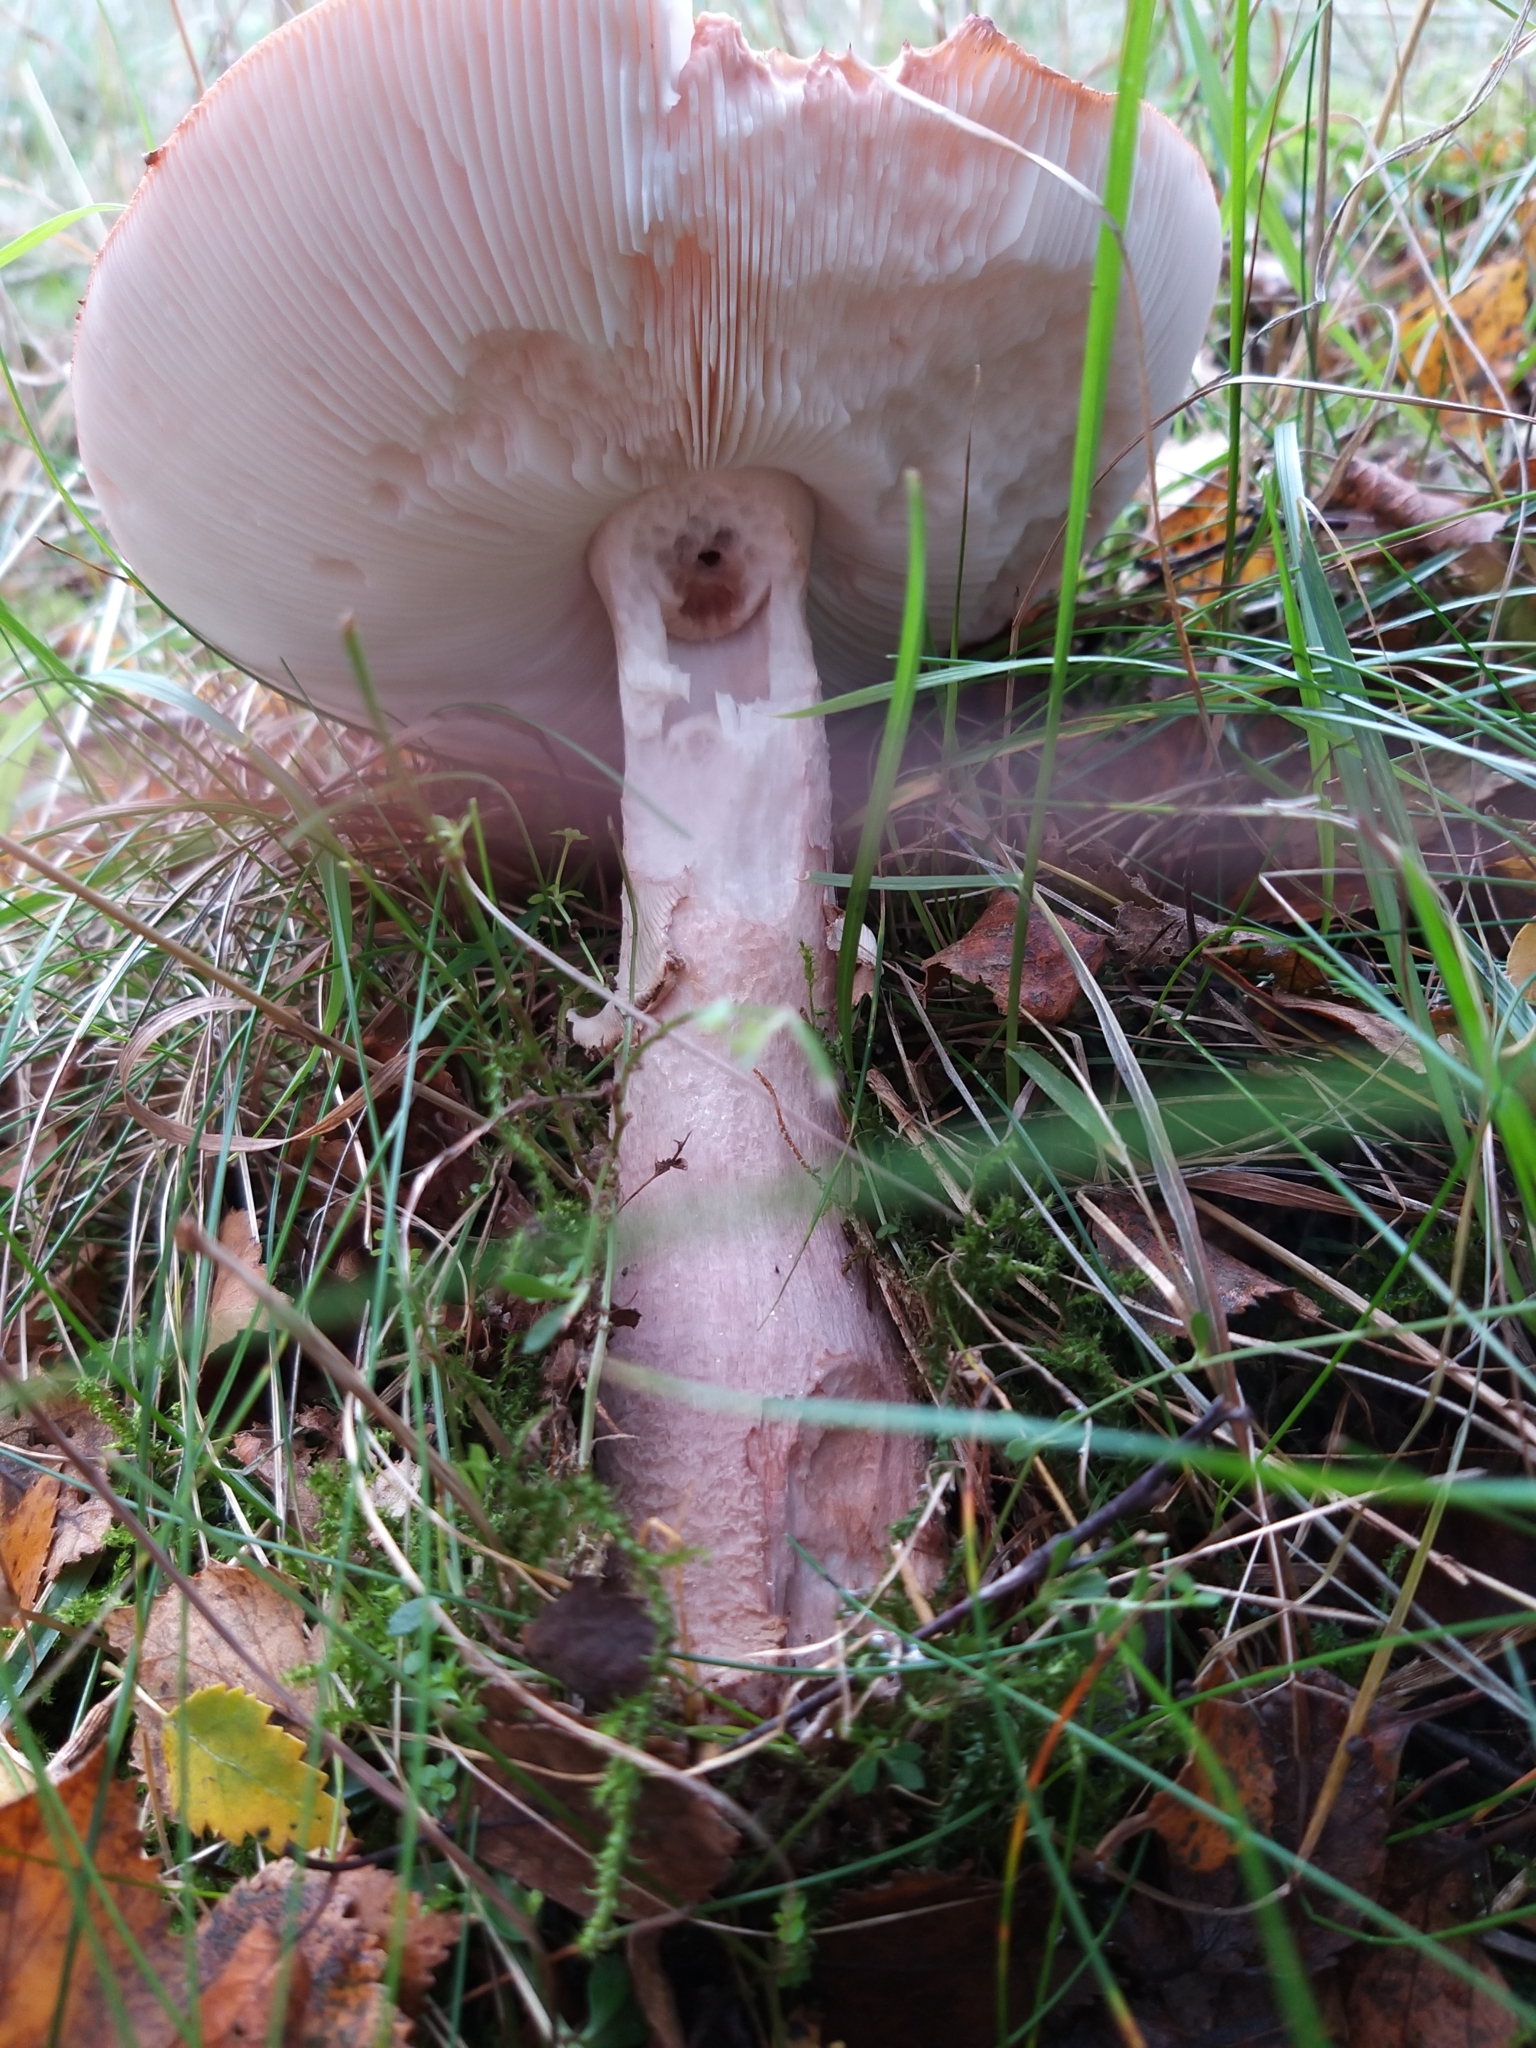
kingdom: Fungi
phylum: Basidiomycota
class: Agaricomycetes
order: Agaricales
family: Amanitaceae
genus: Amanita
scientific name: Amanita rubescens
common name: Blusher
